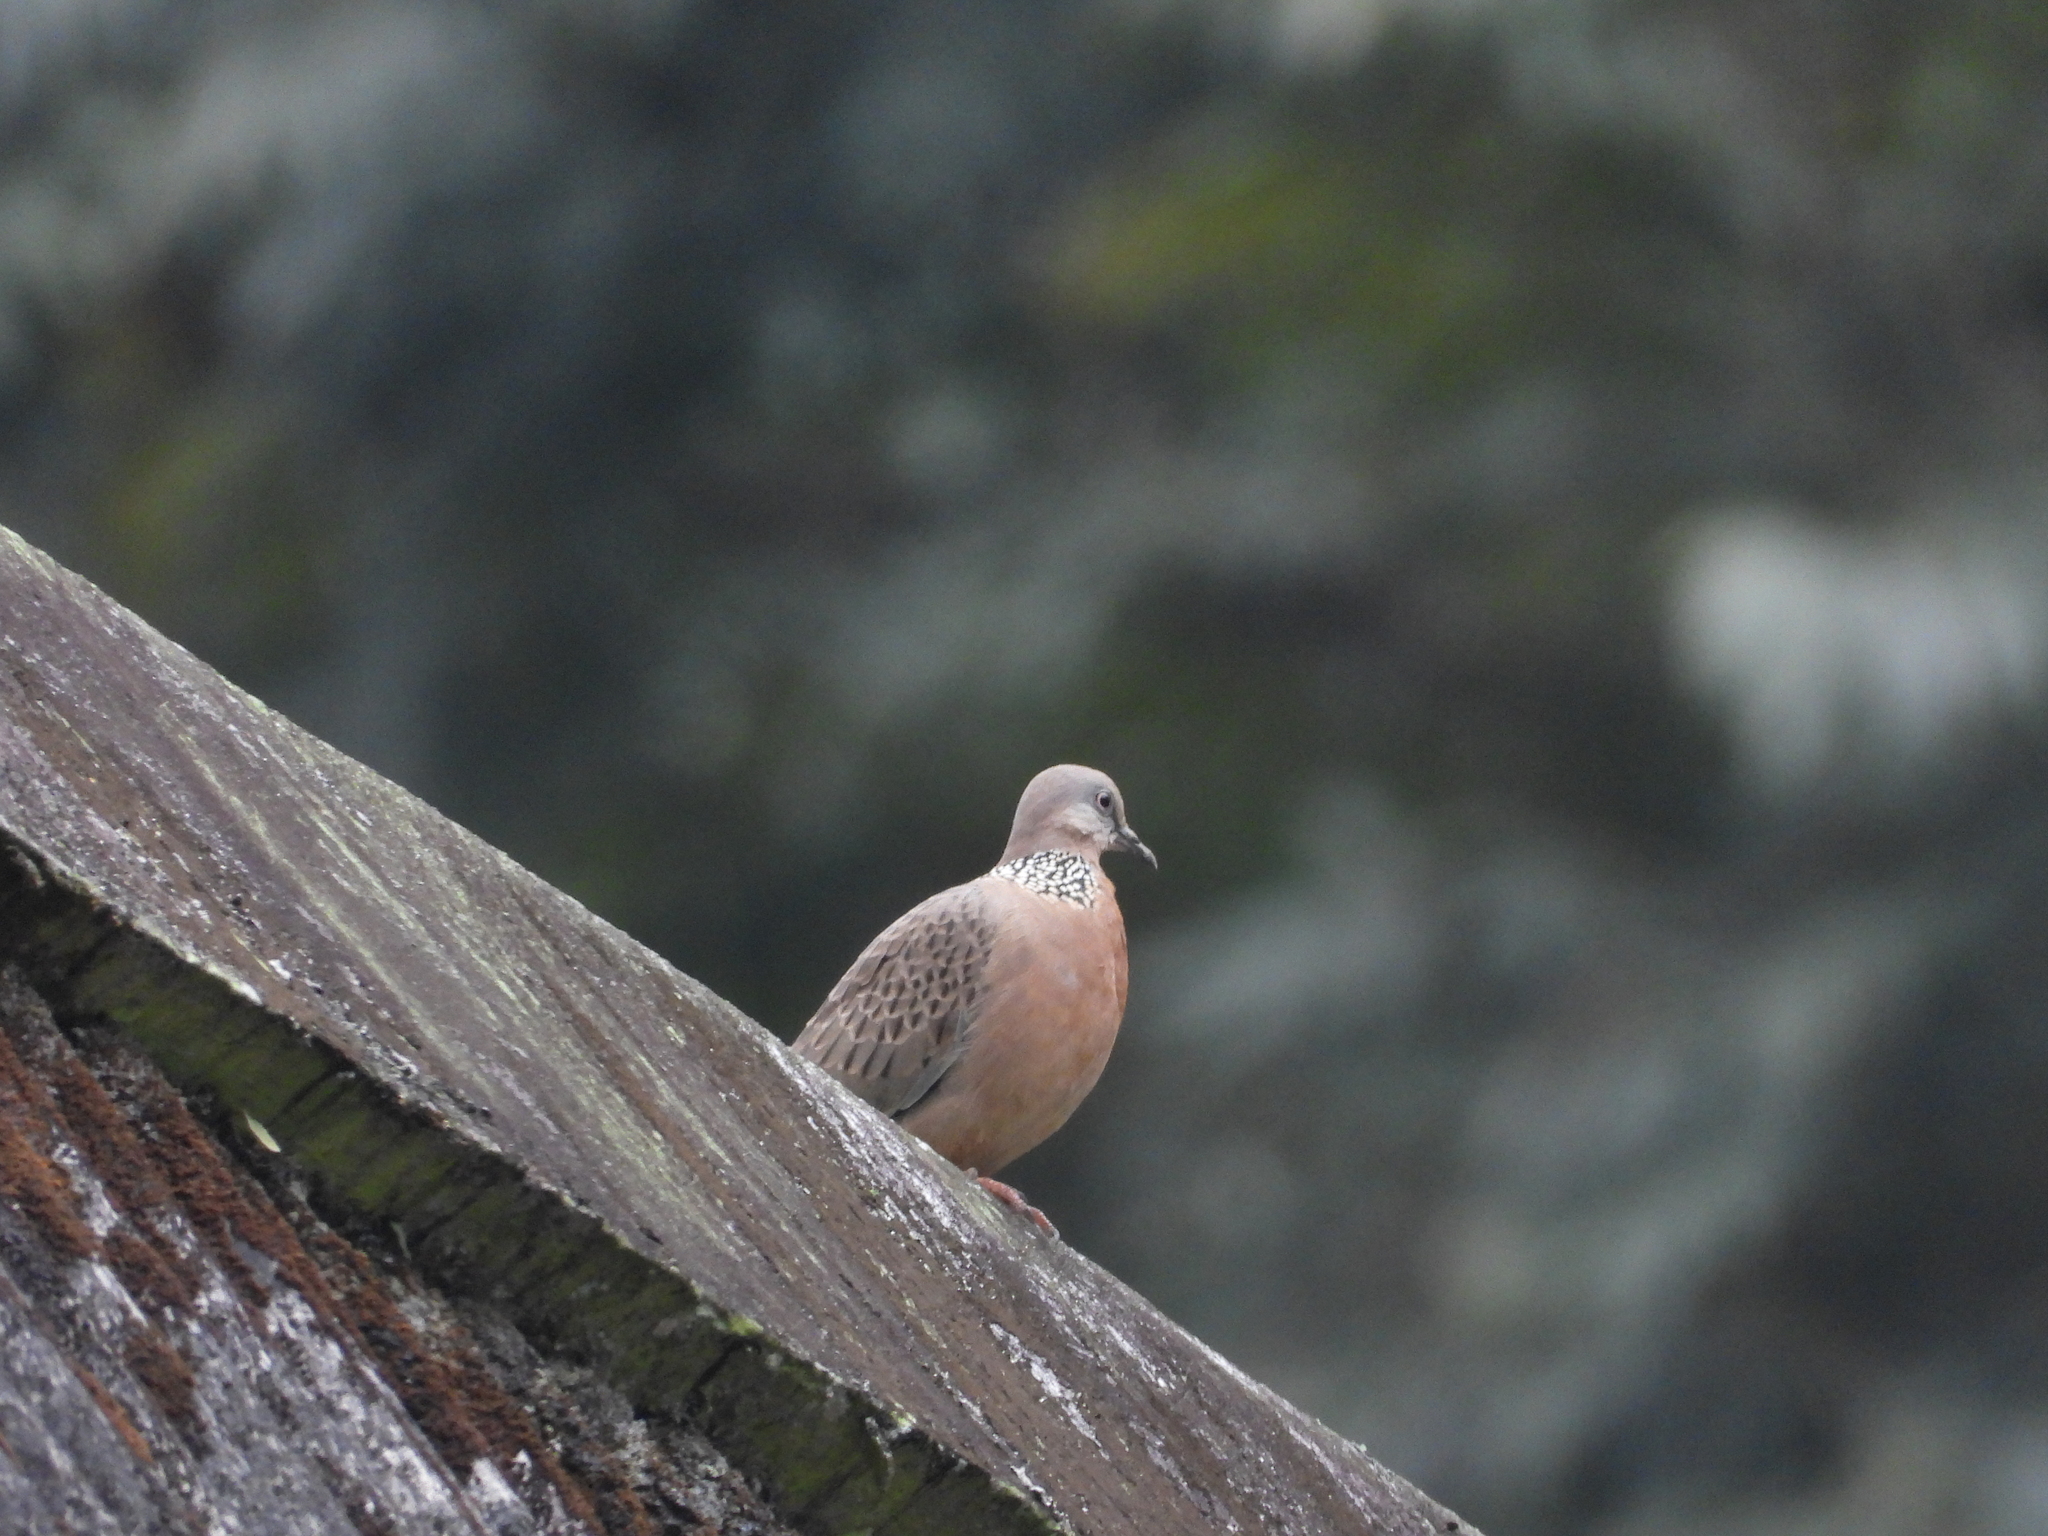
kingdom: Animalia
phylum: Chordata
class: Aves
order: Columbiformes
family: Columbidae
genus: Spilopelia
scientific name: Spilopelia chinensis
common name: Spotted dove
